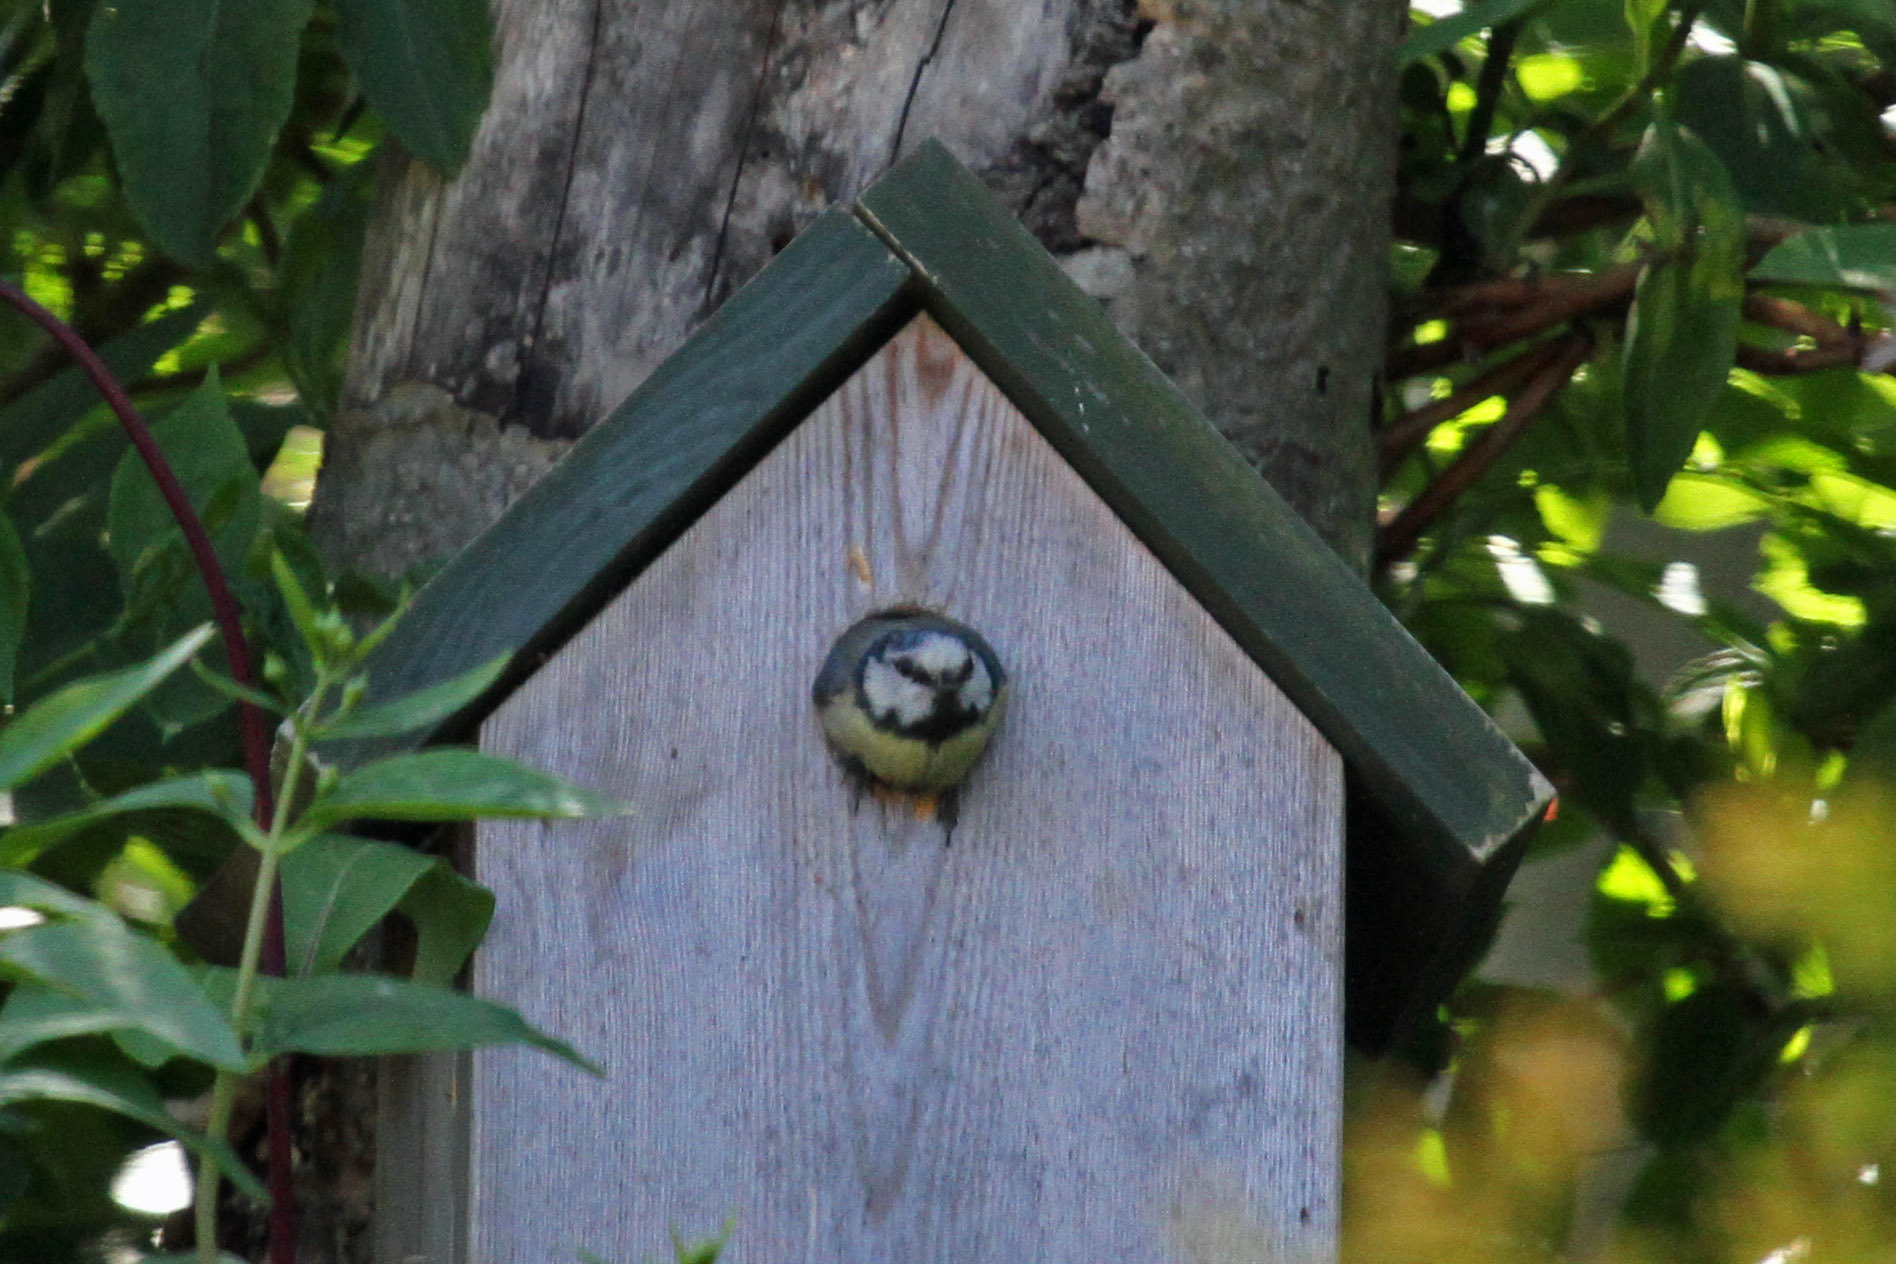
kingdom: Animalia
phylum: Chordata
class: Aves
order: Passeriformes
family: Paridae
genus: Cyanistes
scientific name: Cyanistes caeruleus
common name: Eurasian blue tit
